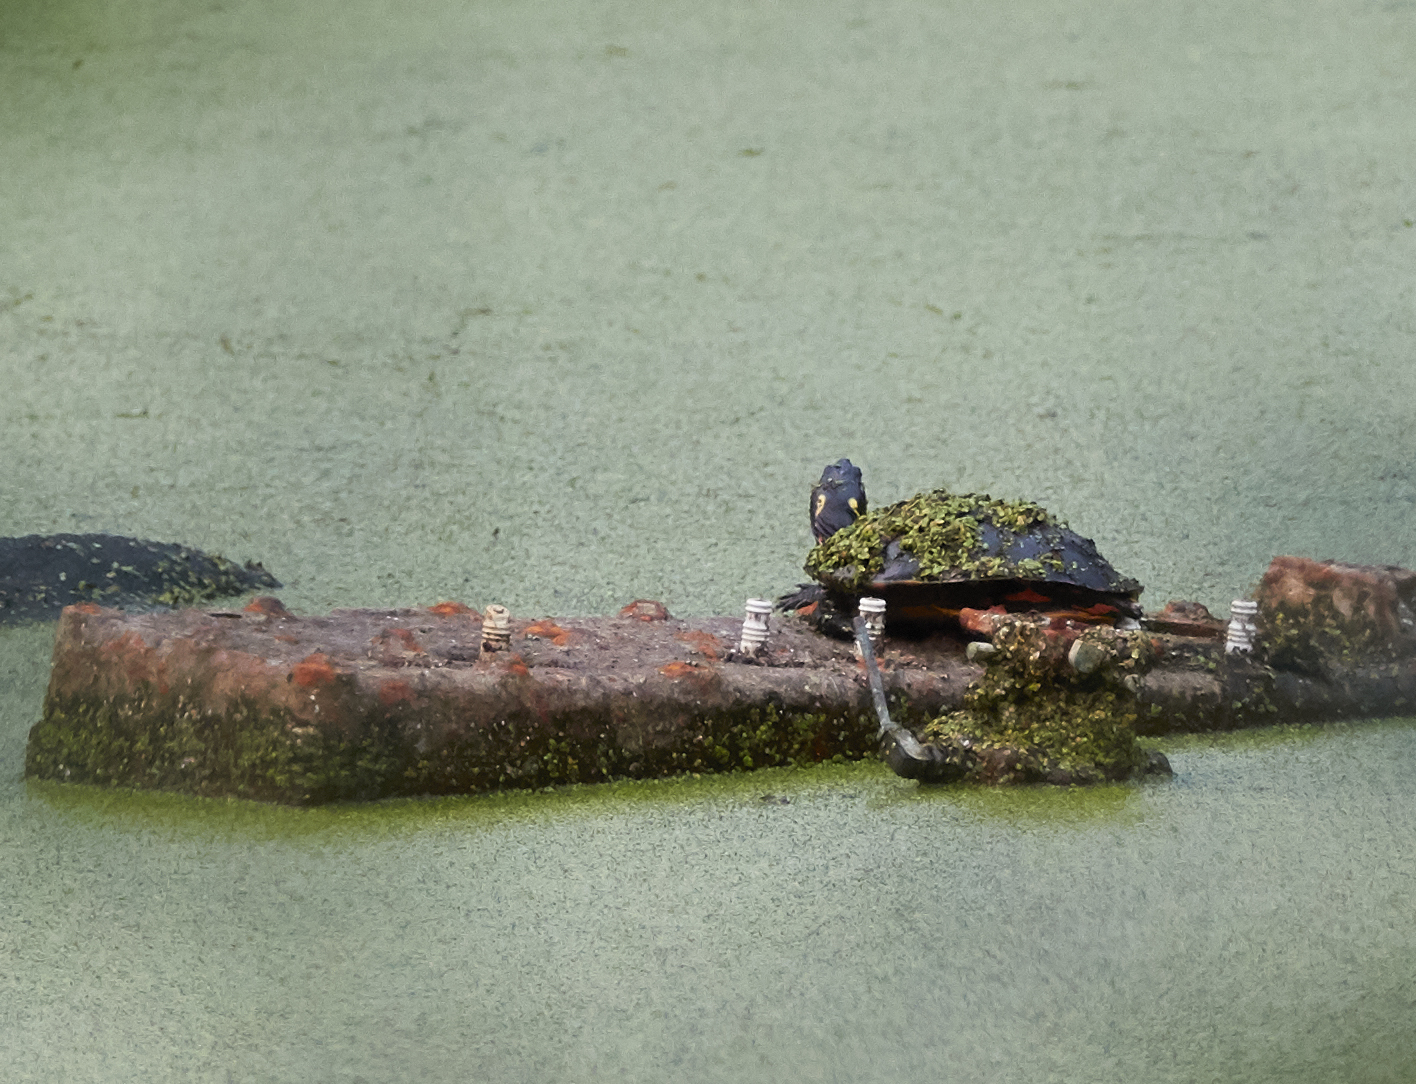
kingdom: Animalia
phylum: Chordata
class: Testudines
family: Emydidae
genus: Chrysemys
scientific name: Chrysemys picta
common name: Painted turtle
